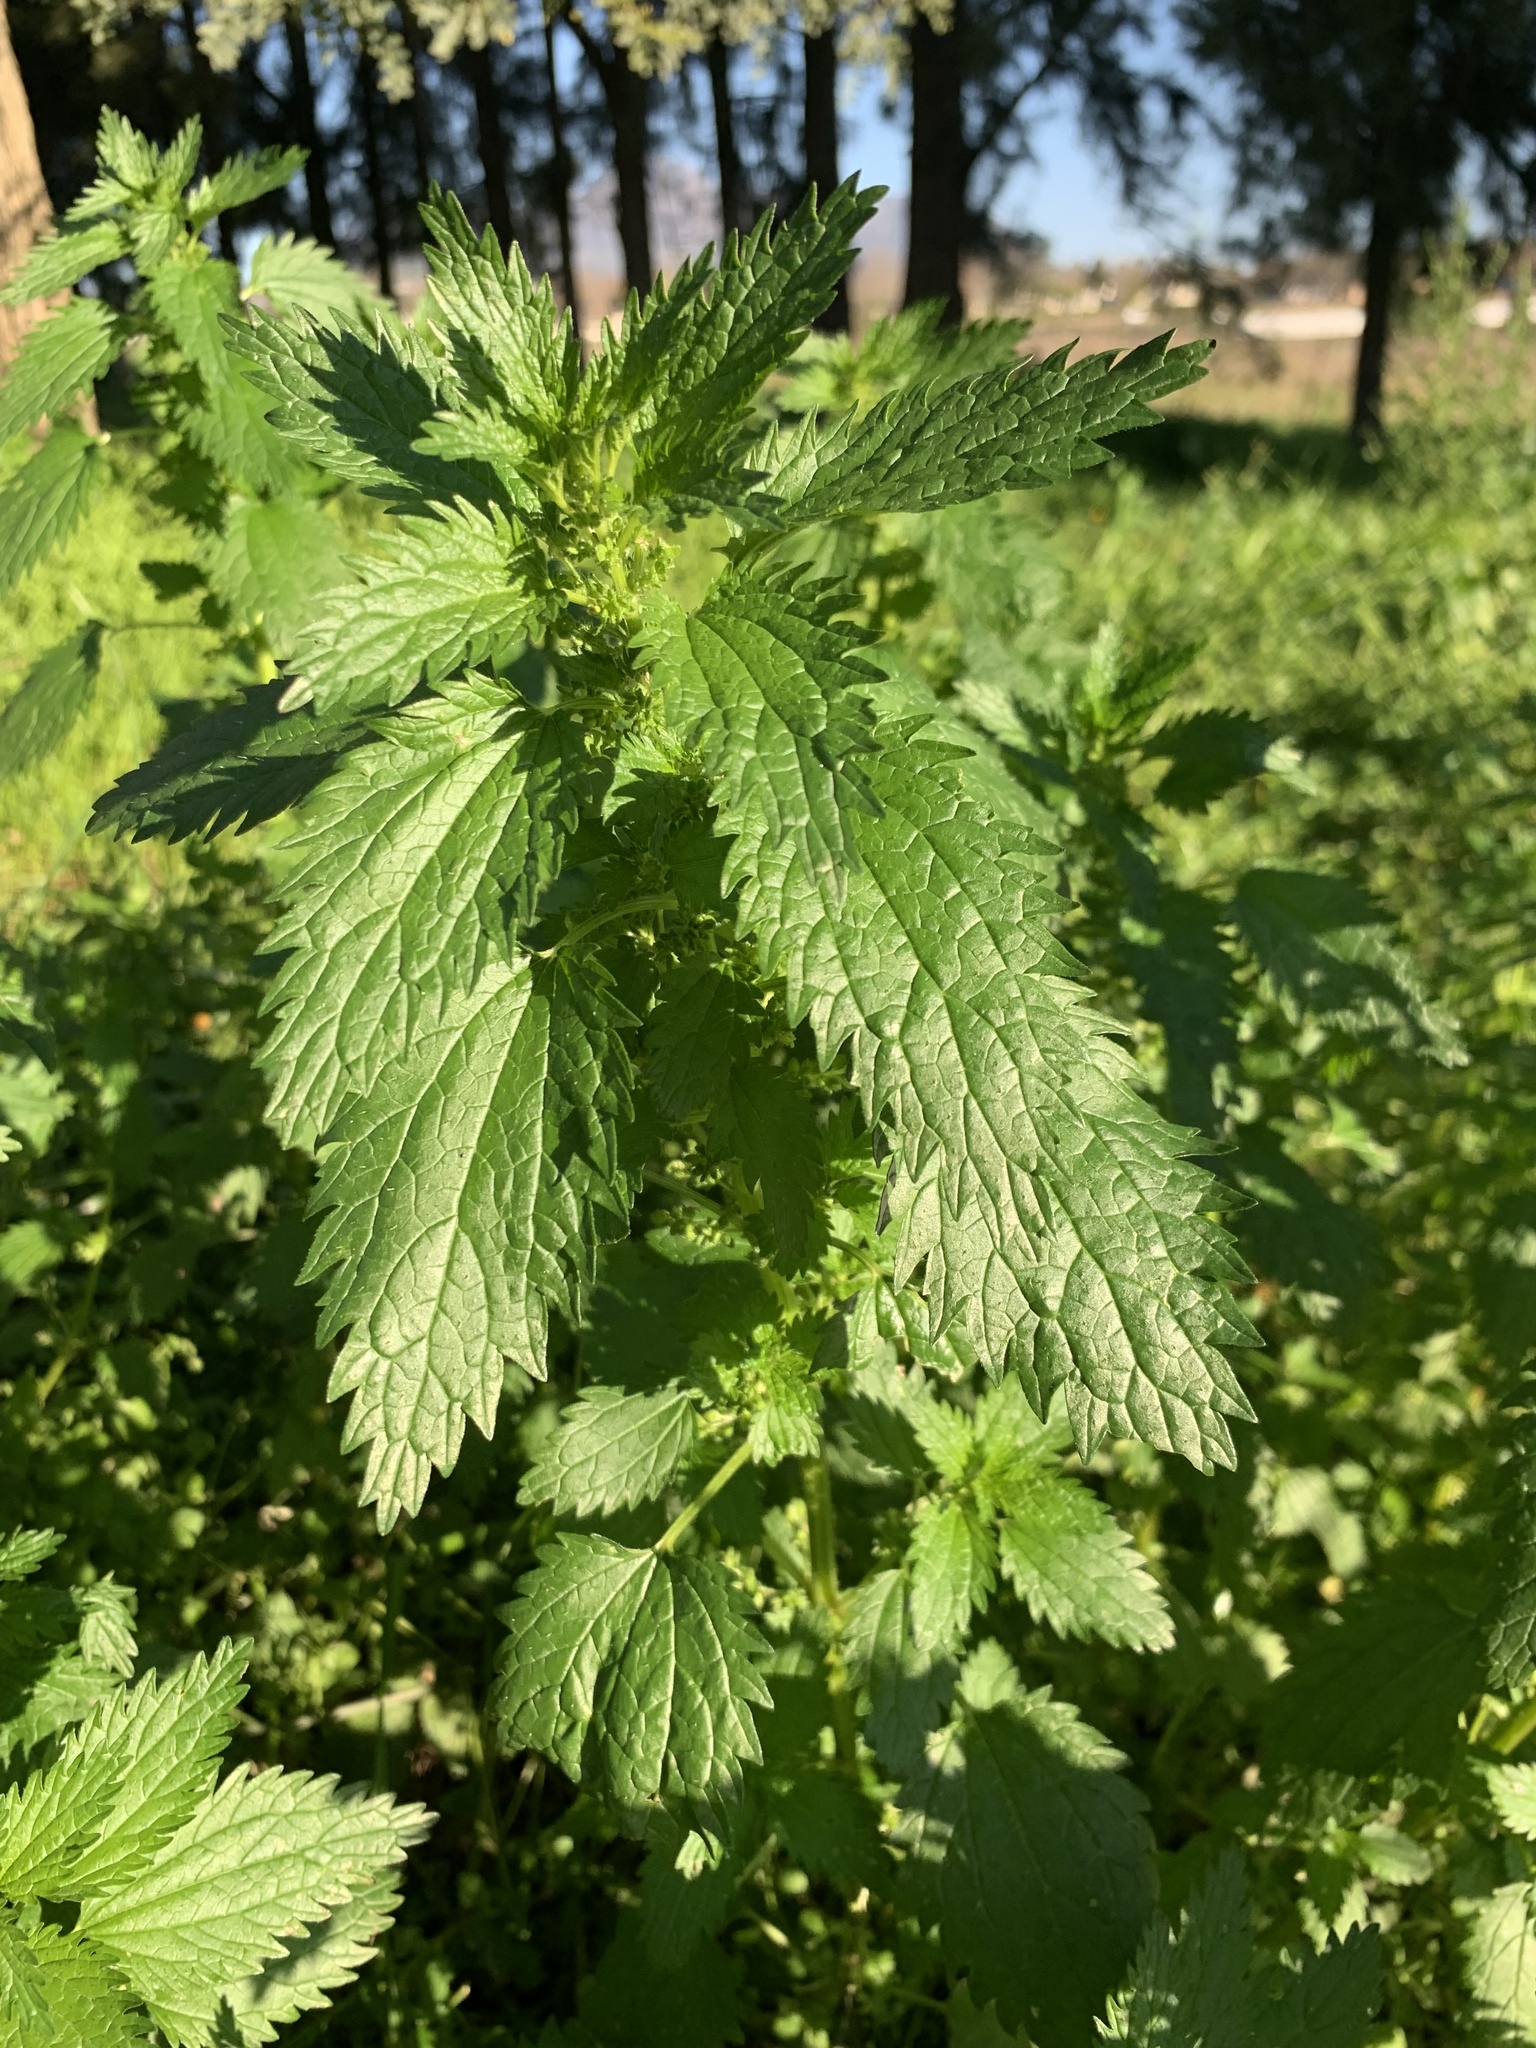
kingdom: Plantae
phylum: Tracheophyta
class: Magnoliopsida
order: Rosales
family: Urticaceae
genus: Urtica
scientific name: Urtica urens
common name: Dwarf nettle
